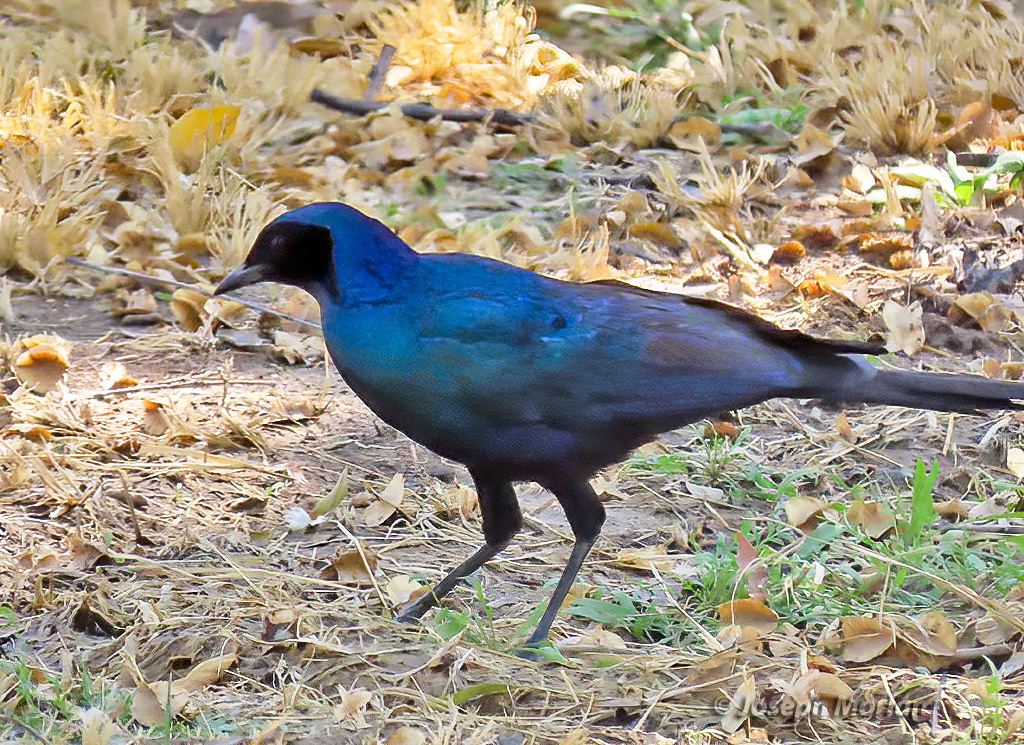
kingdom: Animalia
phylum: Chordata
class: Aves
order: Passeriformes
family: Sturnidae
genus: Lamprotornis
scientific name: Lamprotornis australis
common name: Burchell's starling
